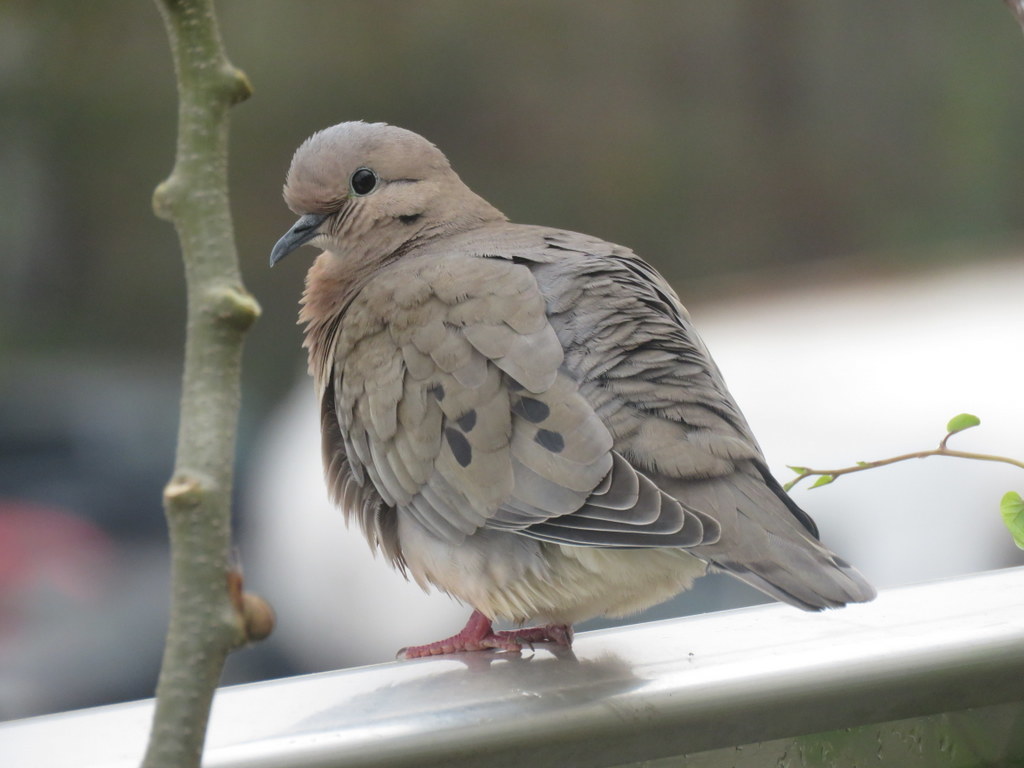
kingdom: Animalia
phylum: Chordata
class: Aves
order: Columbiformes
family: Columbidae
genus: Zenaida
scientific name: Zenaida auriculata
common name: Eared dove
